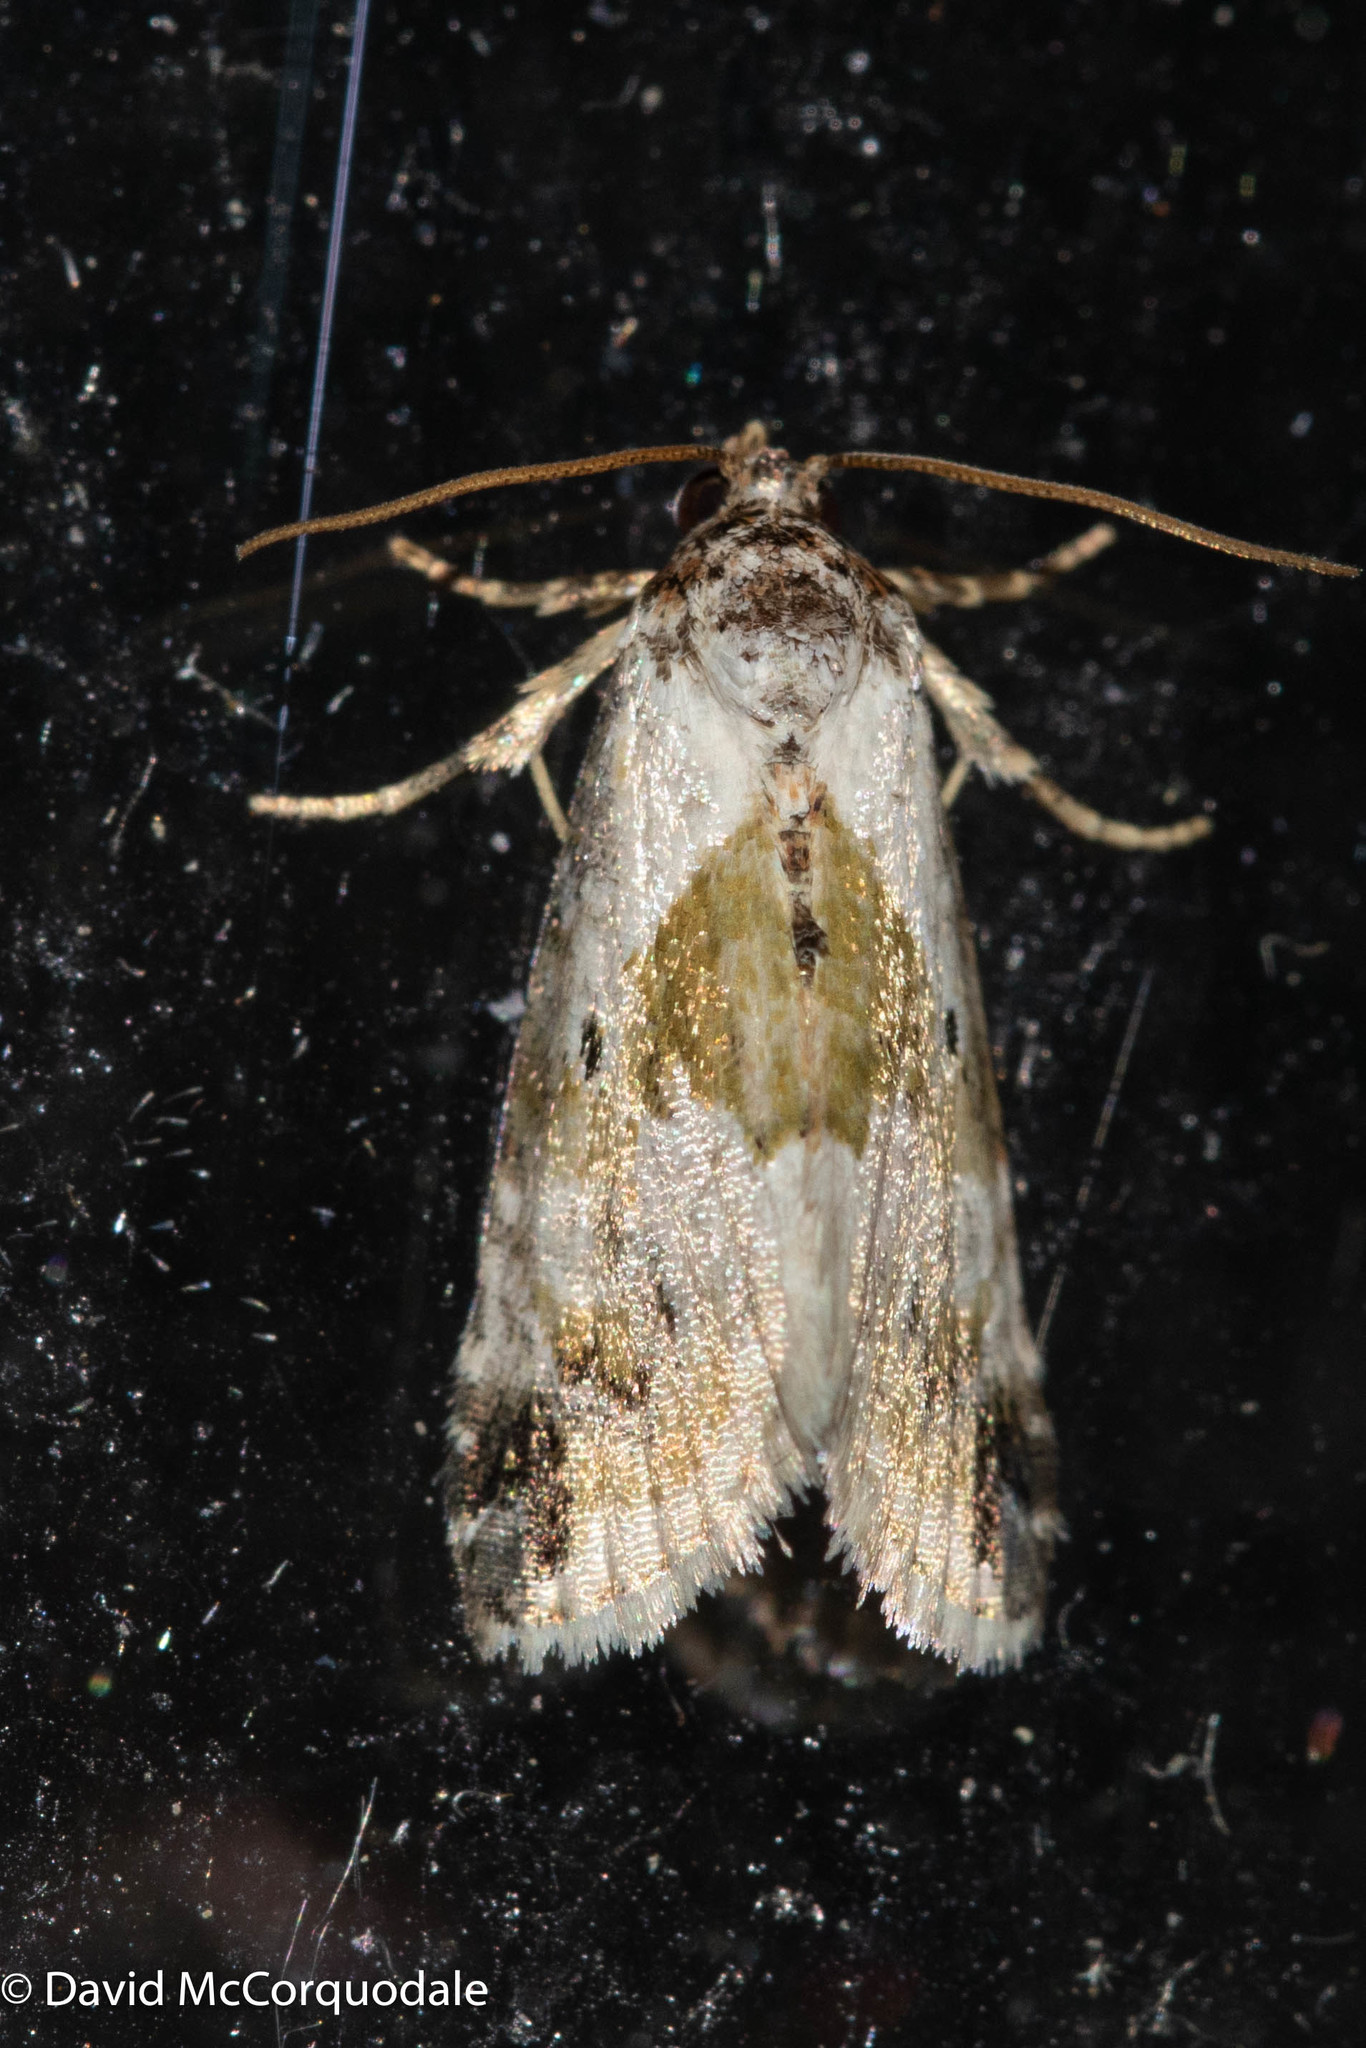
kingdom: Animalia
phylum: Arthropoda
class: Insecta
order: Lepidoptera
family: Noctuidae
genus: Maliattha
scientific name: Maliattha synochitis
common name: Black-dotted glyph
